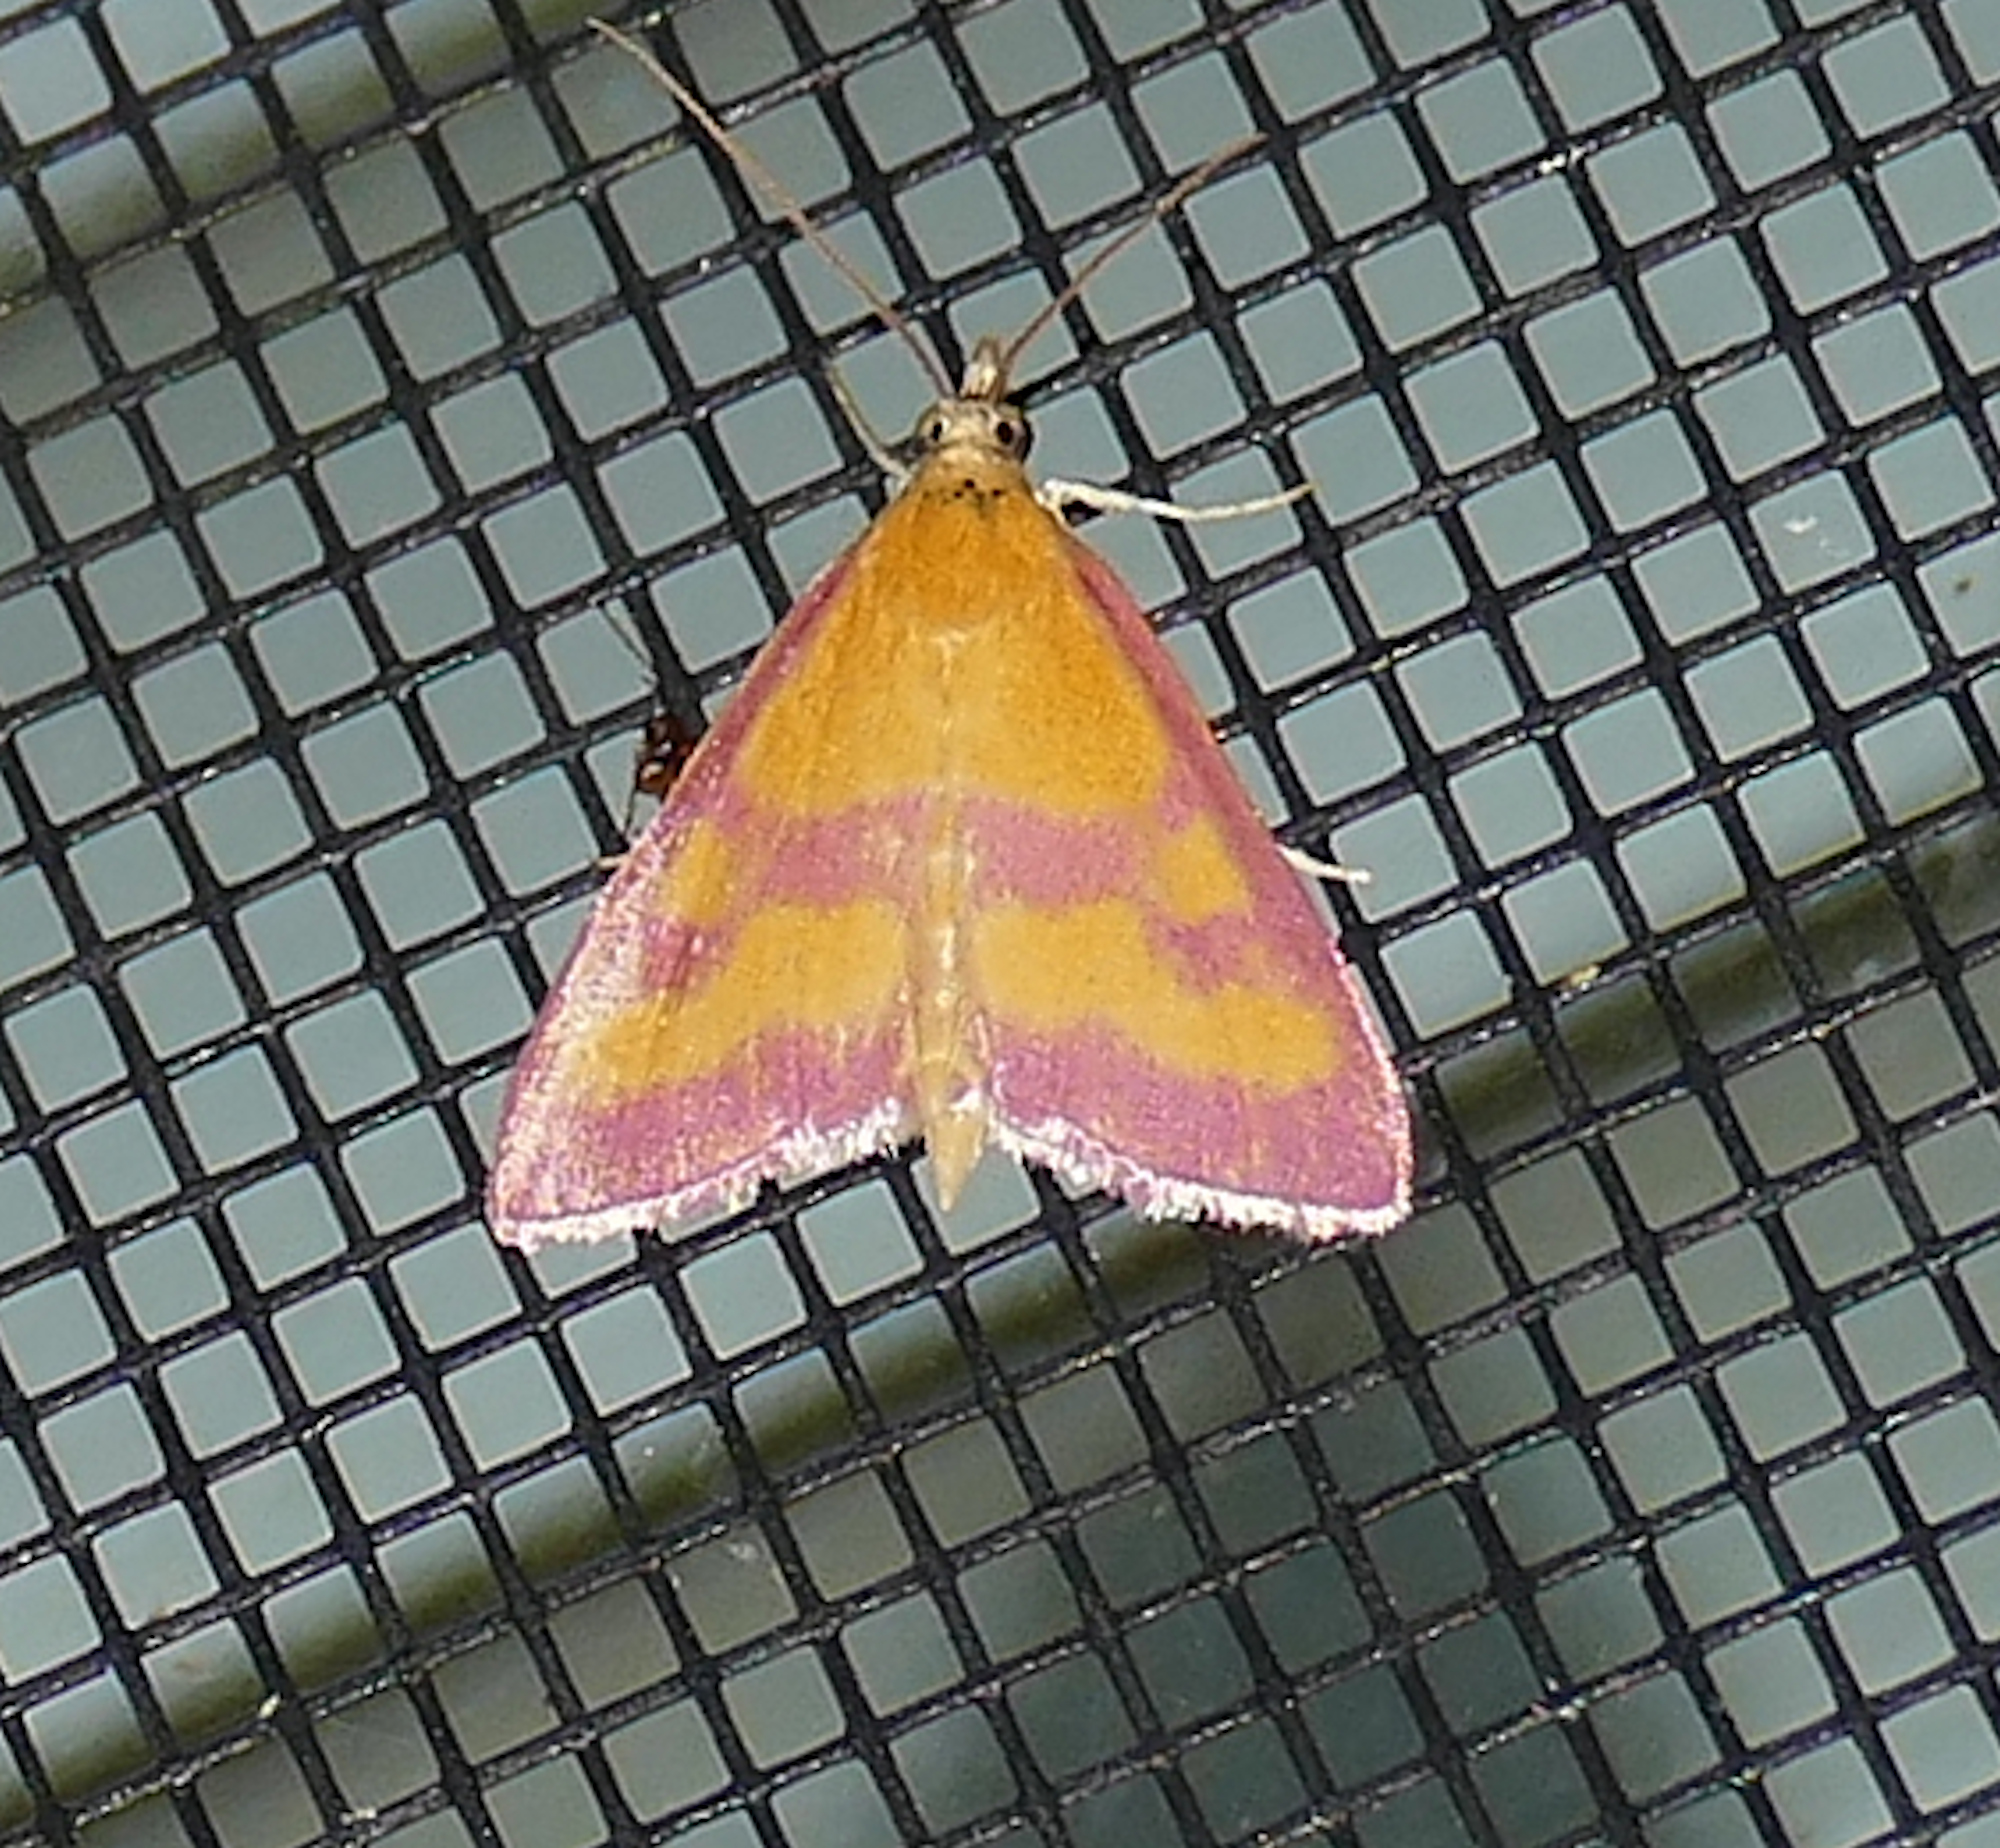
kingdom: Animalia
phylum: Arthropoda
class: Insecta
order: Lepidoptera
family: Crambidae
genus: Pyrausta
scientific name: Pyrausta laticlavia
